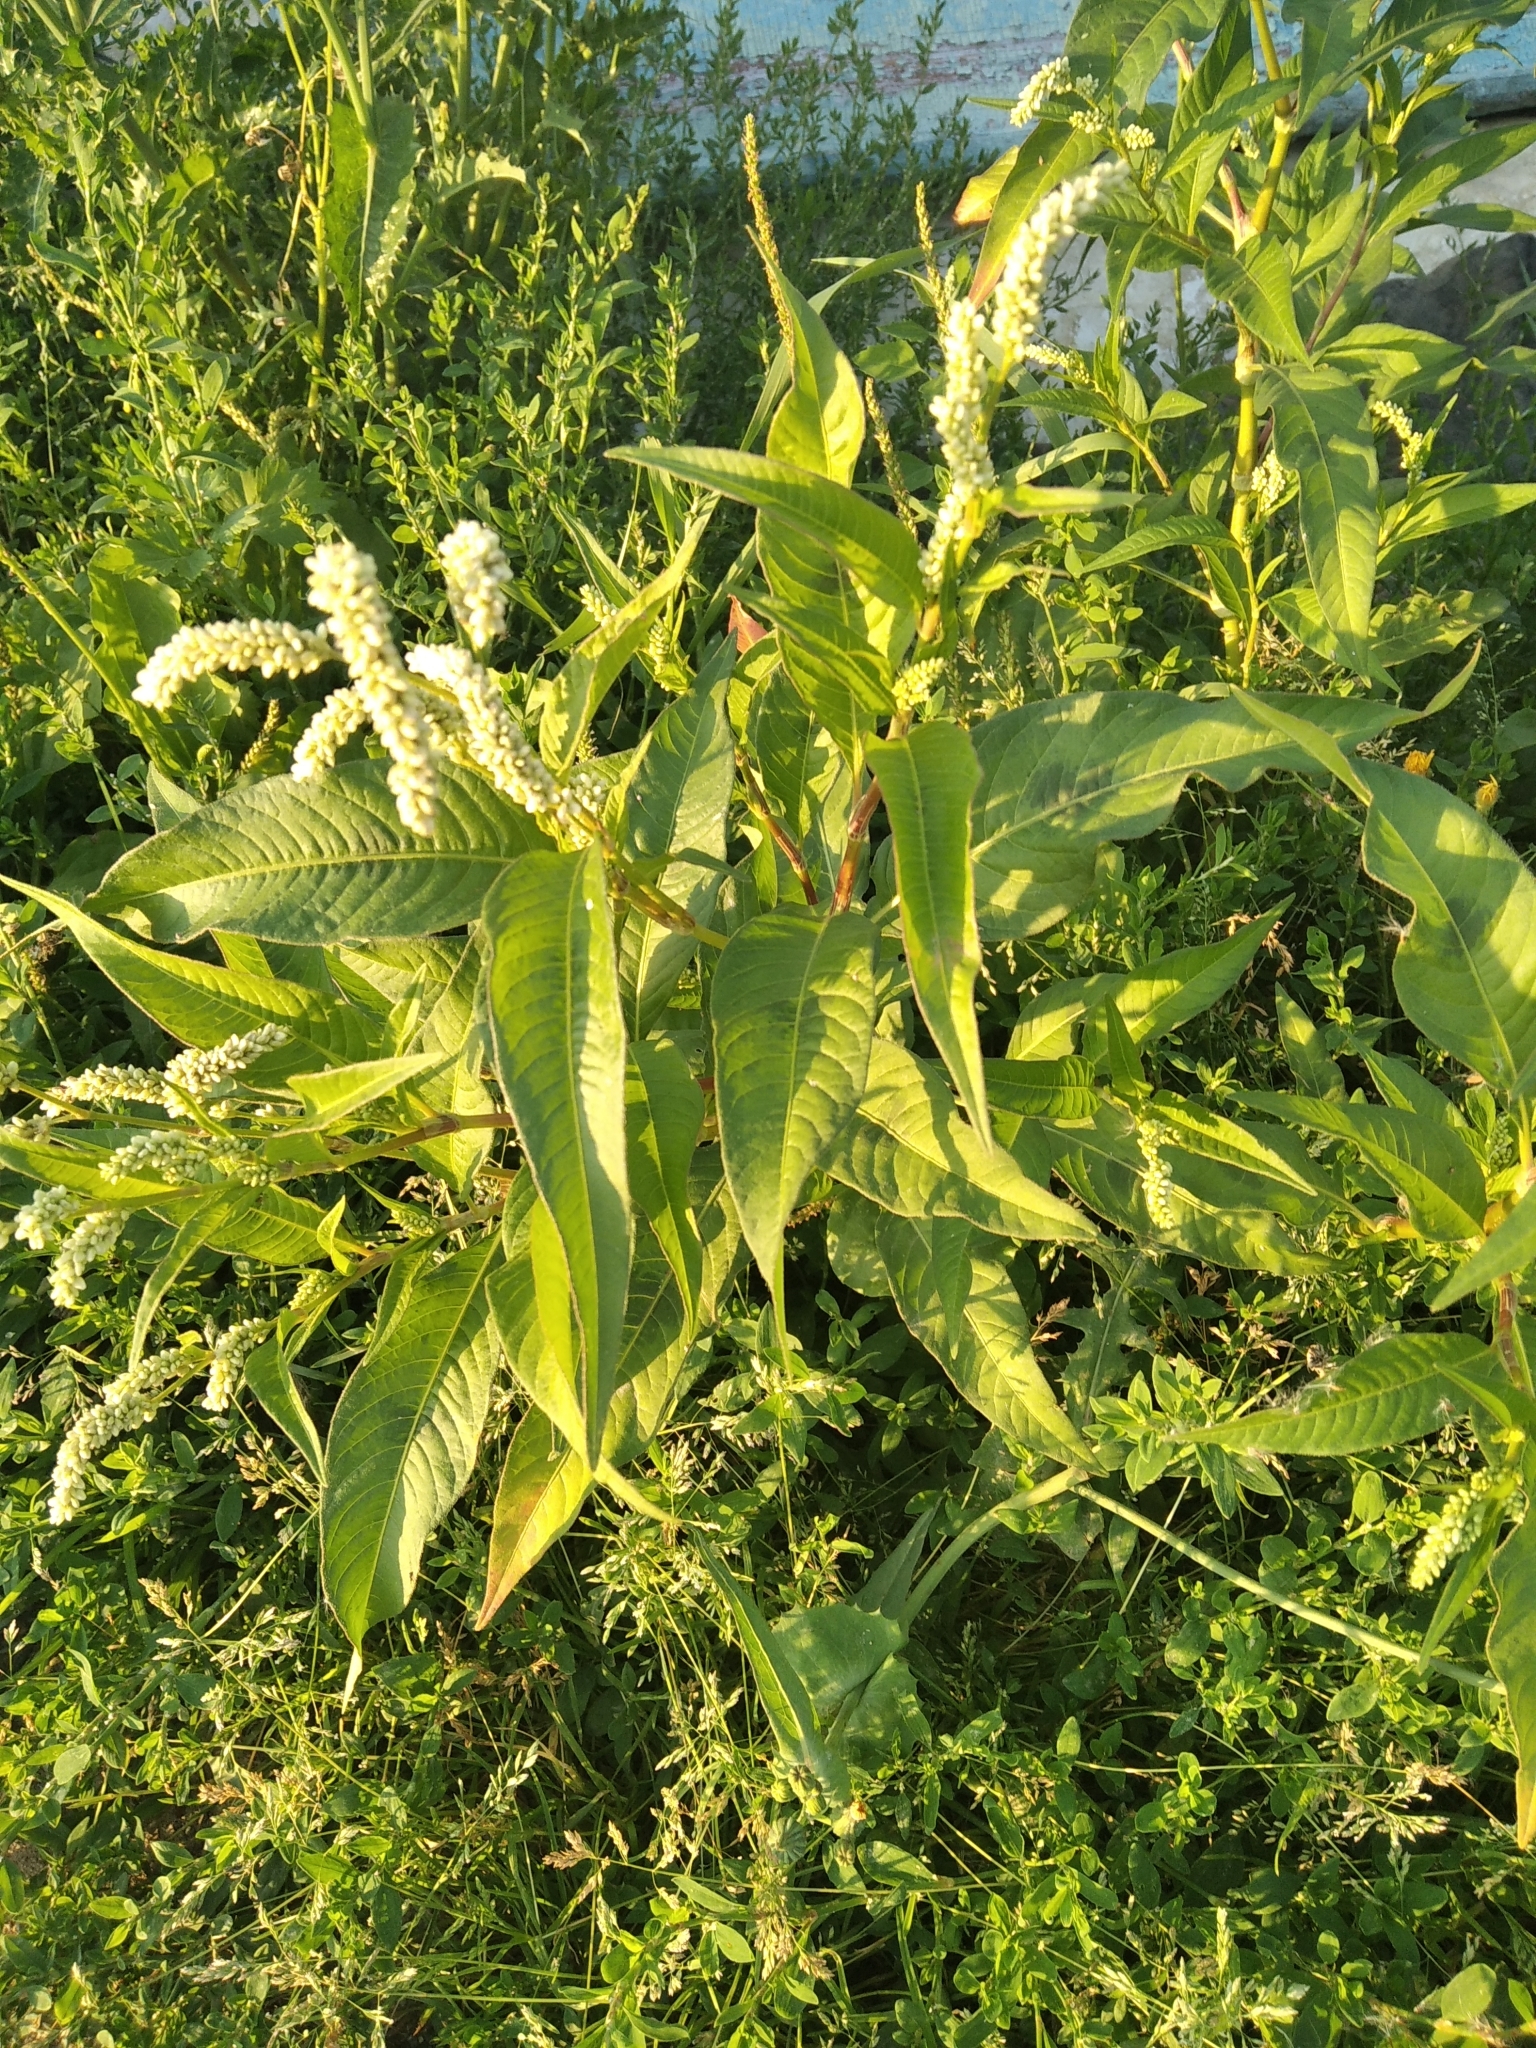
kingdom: Plantae
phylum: Tracheophyta
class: Magnoliopsida
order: Caryophyllales
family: Polygonaceae
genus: Persicaria
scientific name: Persicaria lapathifolia
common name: Curlytop knotweed
